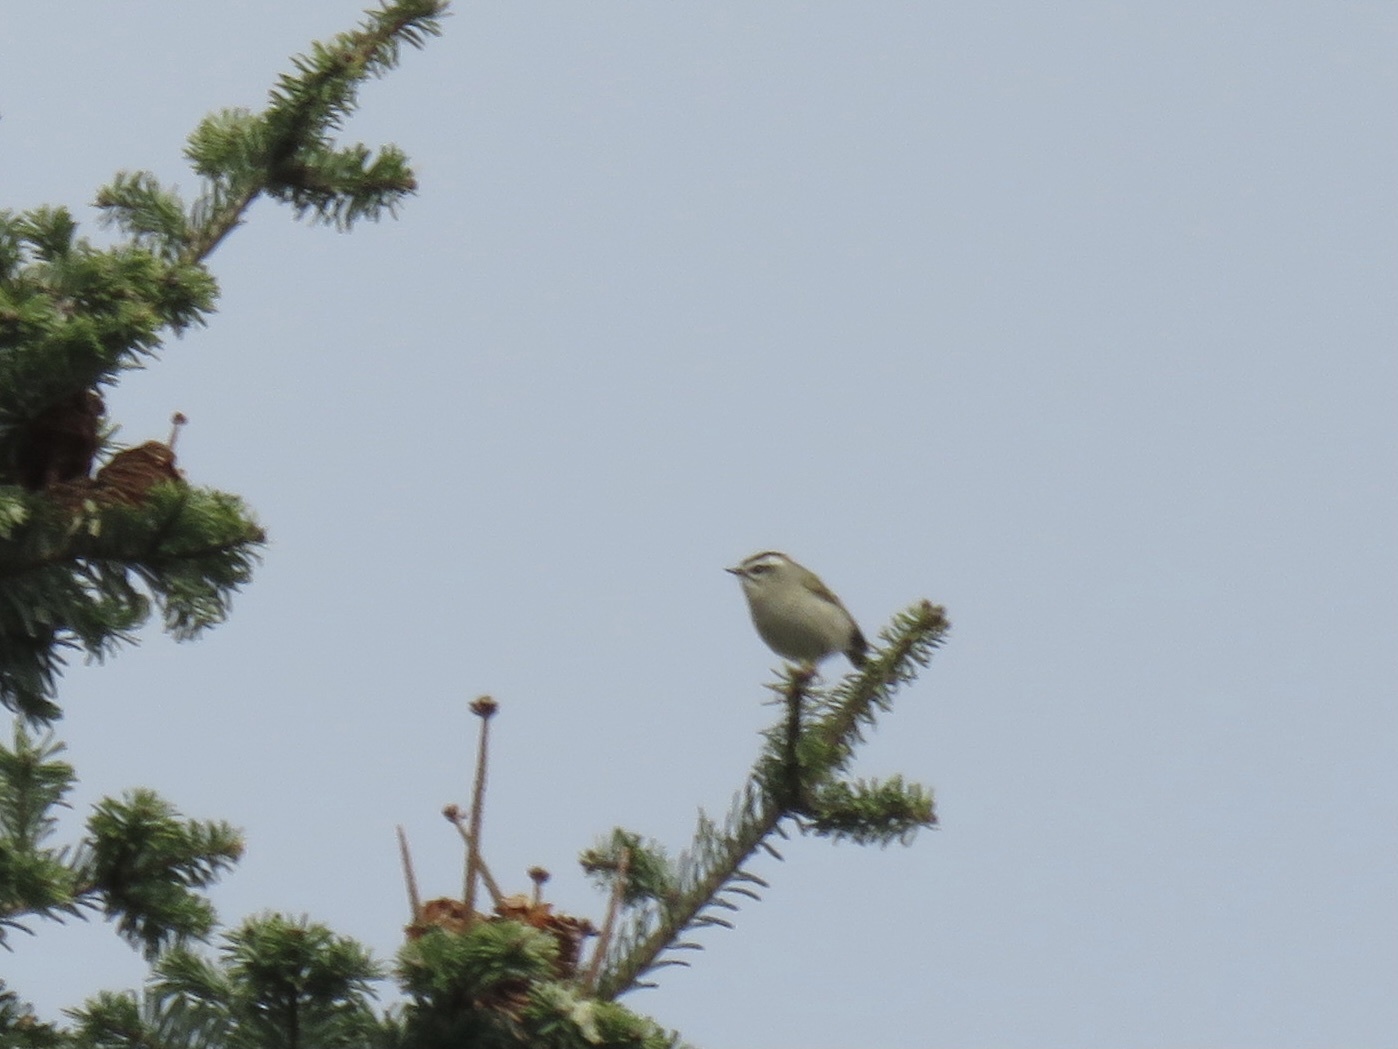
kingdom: Animalia
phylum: Chordata
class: Aves
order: Passeriformes
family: Regulidae
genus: Regulus
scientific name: Regulus satrapa
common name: Golden-crowned kinglet
